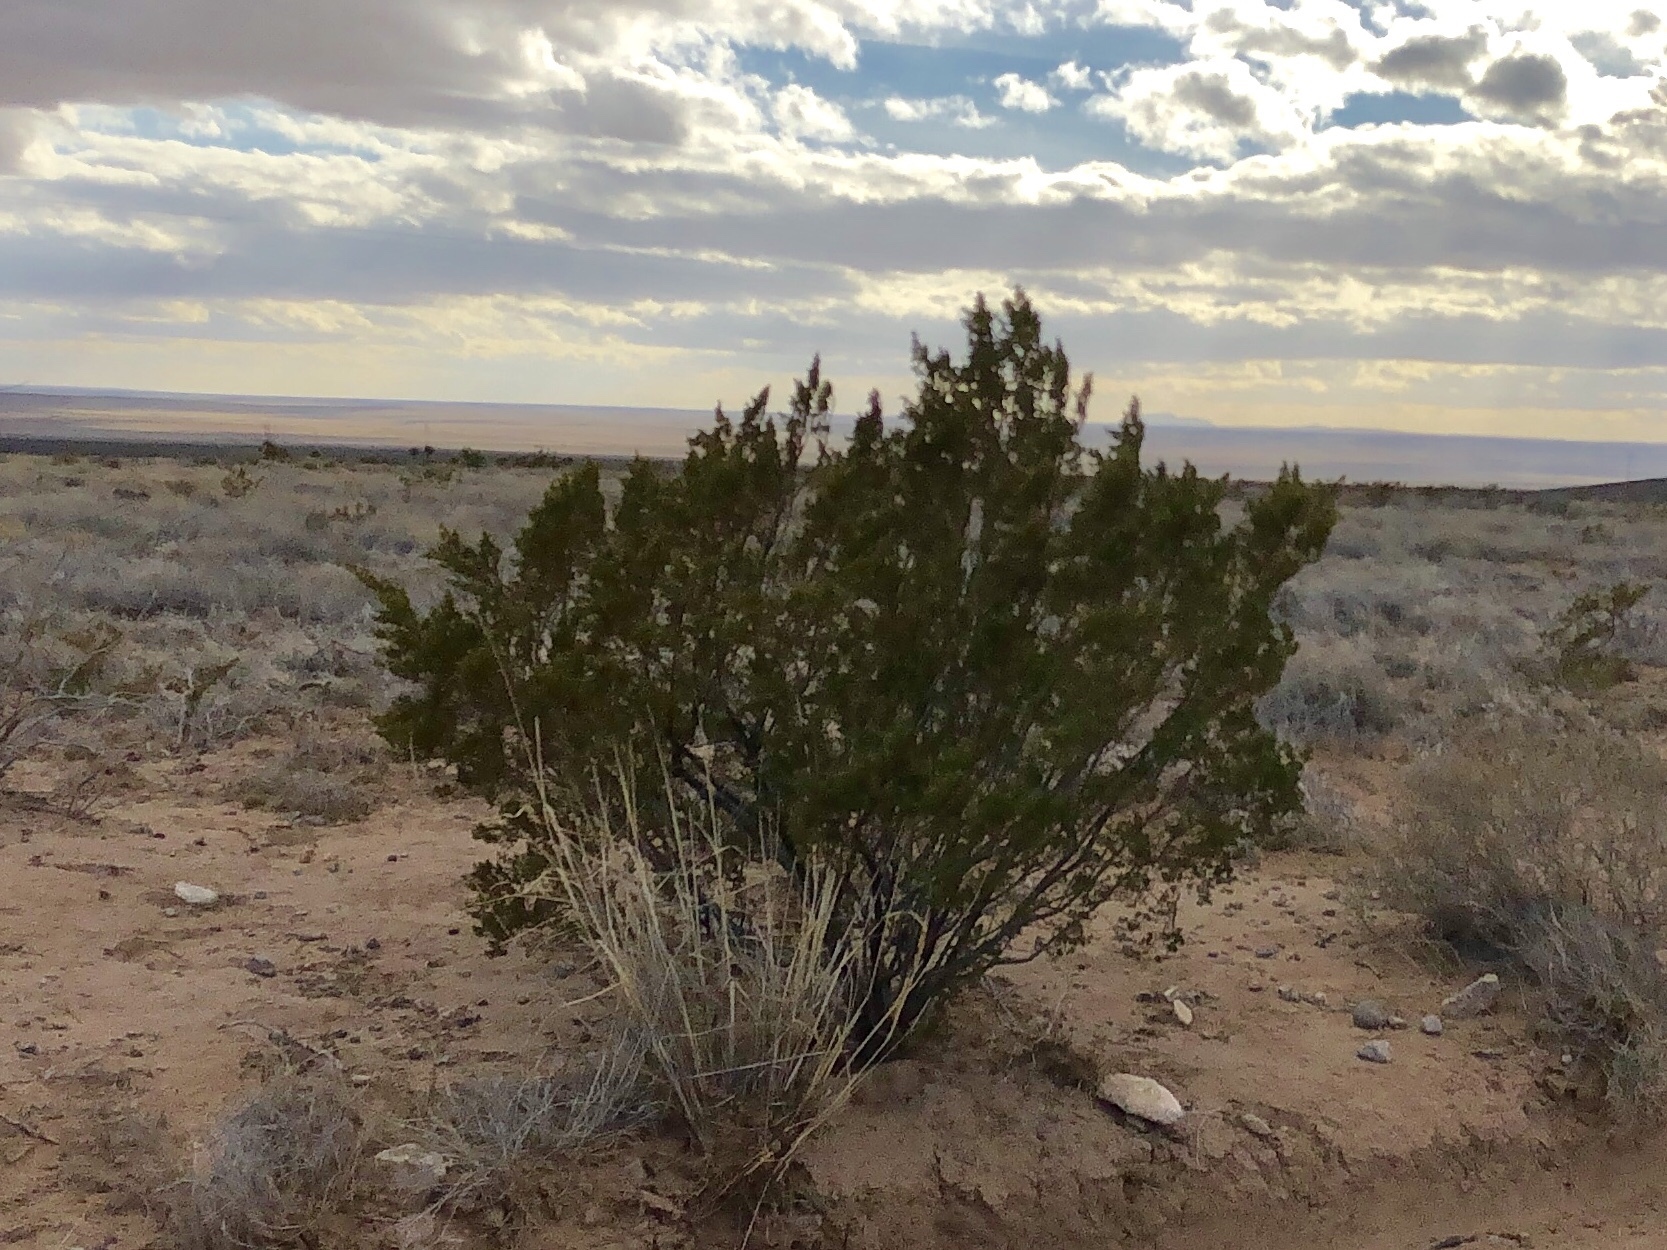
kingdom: Plantae
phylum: Tracheophyta
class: Magnoliopsida
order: Zygophyllales
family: Zygophyllaceae
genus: Larrea
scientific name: Larrea tridentata
